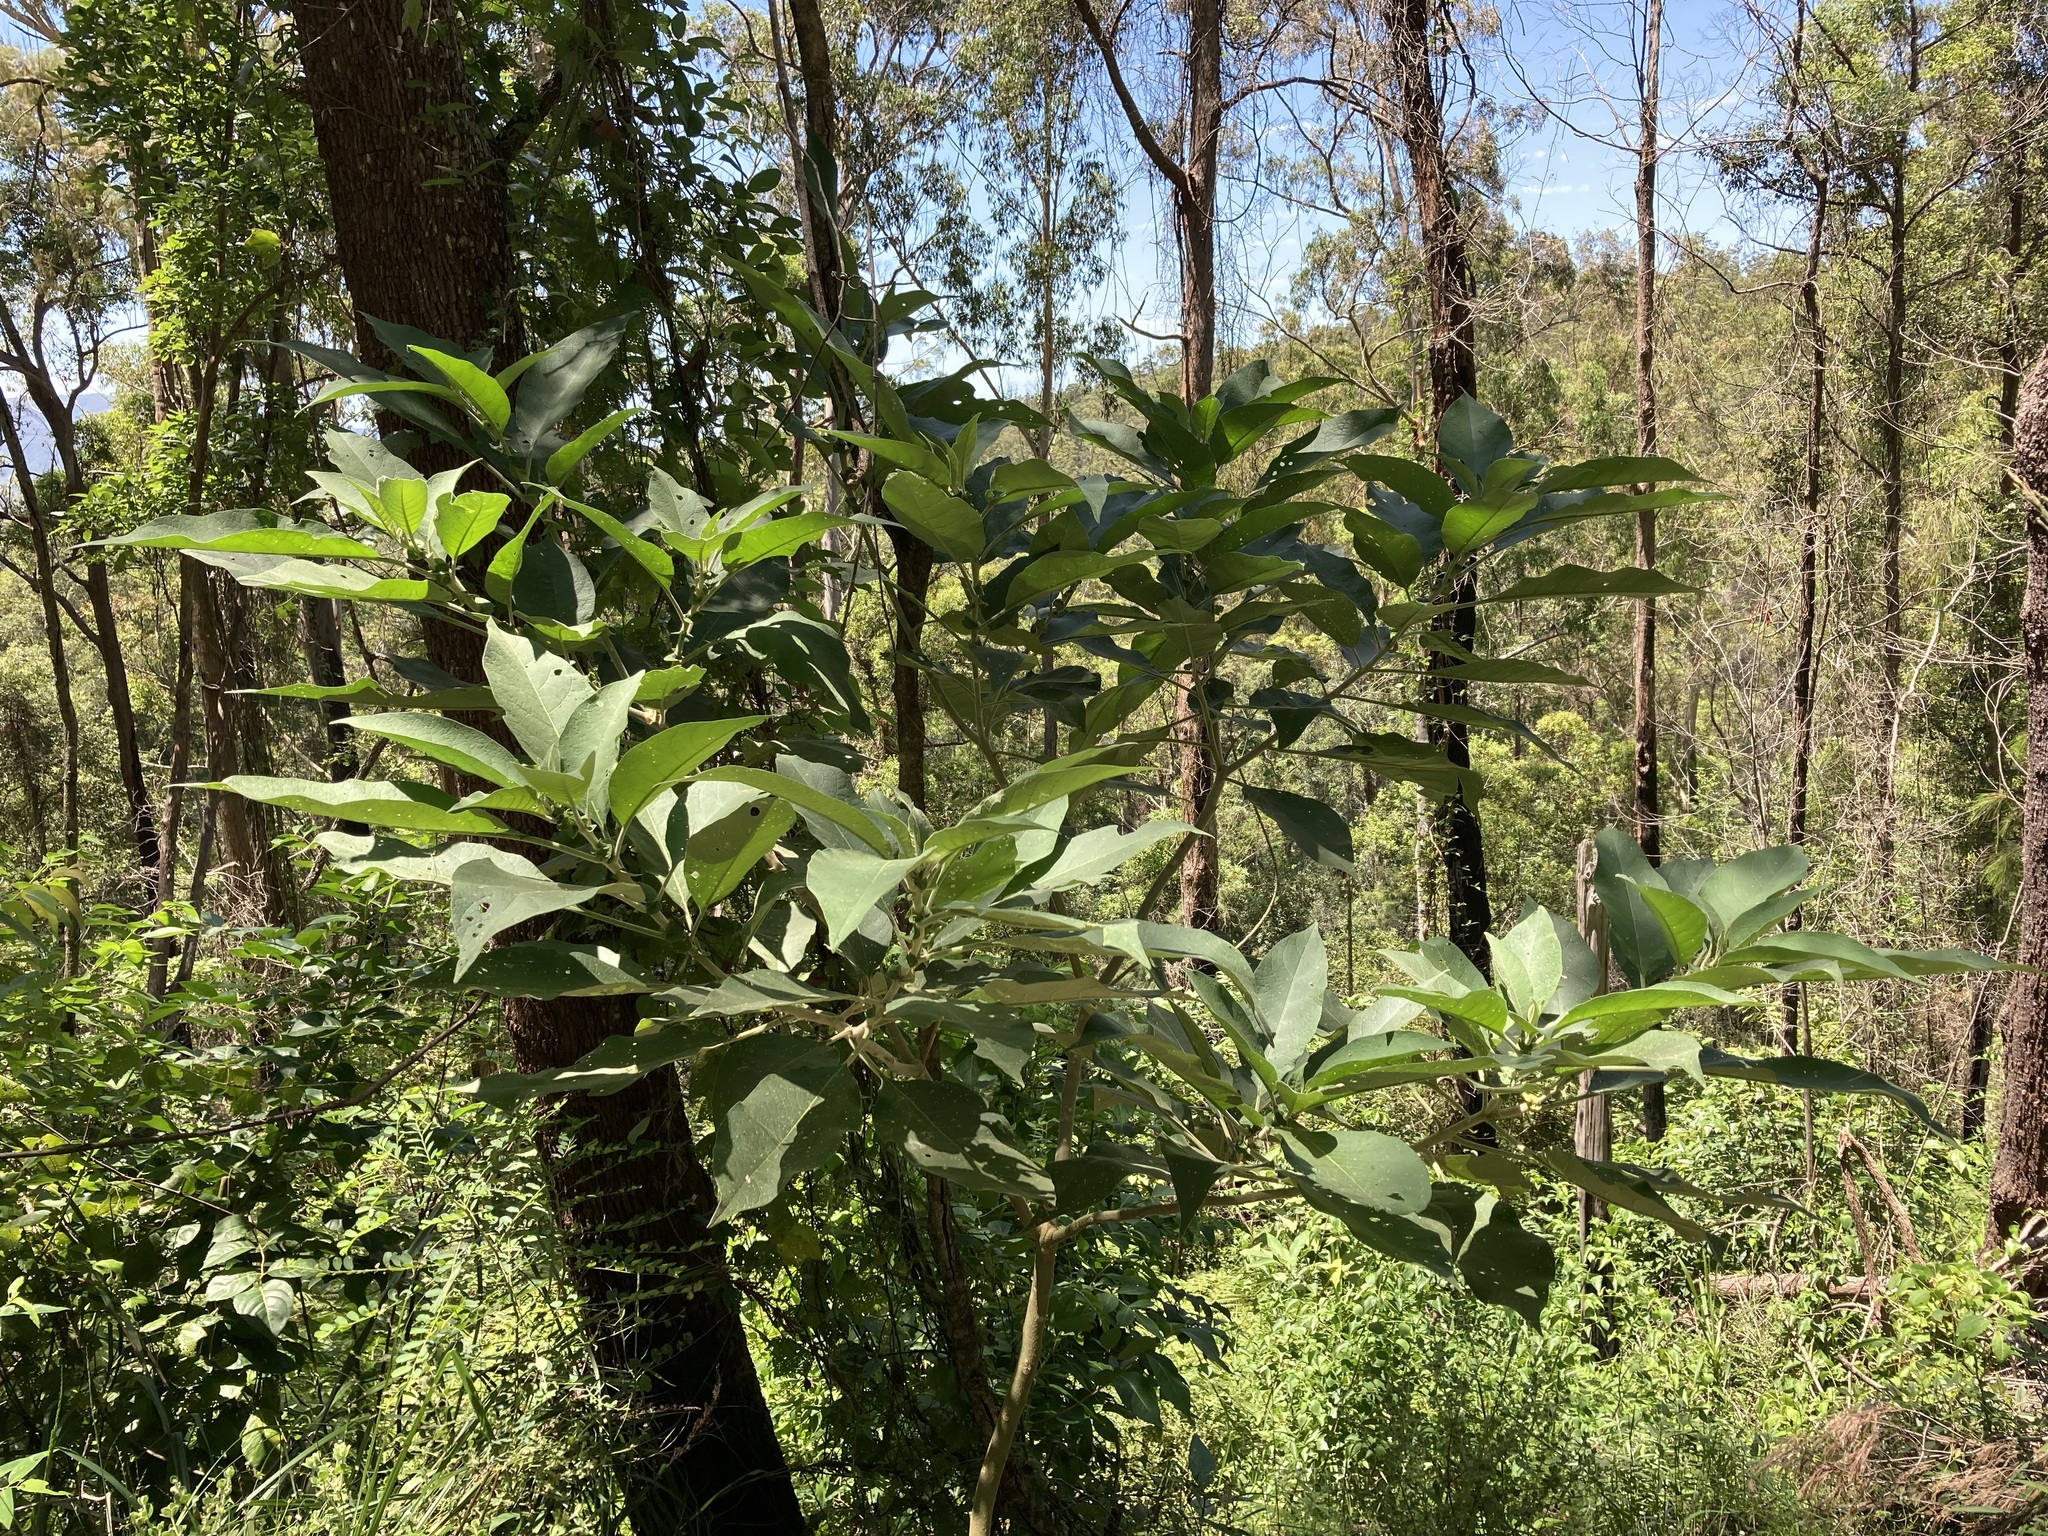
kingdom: Plantae
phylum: Tracheophyta
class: Magnoliopsida
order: Solanales
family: Solanaceae
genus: Solanum
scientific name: Solanum mauritianum
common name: Earleaf nightshade
